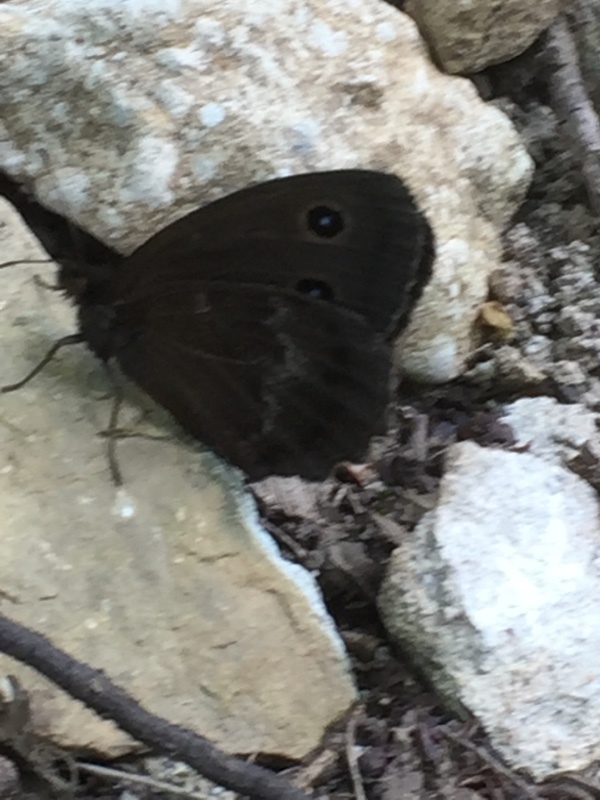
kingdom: Animalia
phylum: Arthropoda
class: Insecta
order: Lepidoptera
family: Nymphalidae
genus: Minois
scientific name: Minois dryas
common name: Dryad
